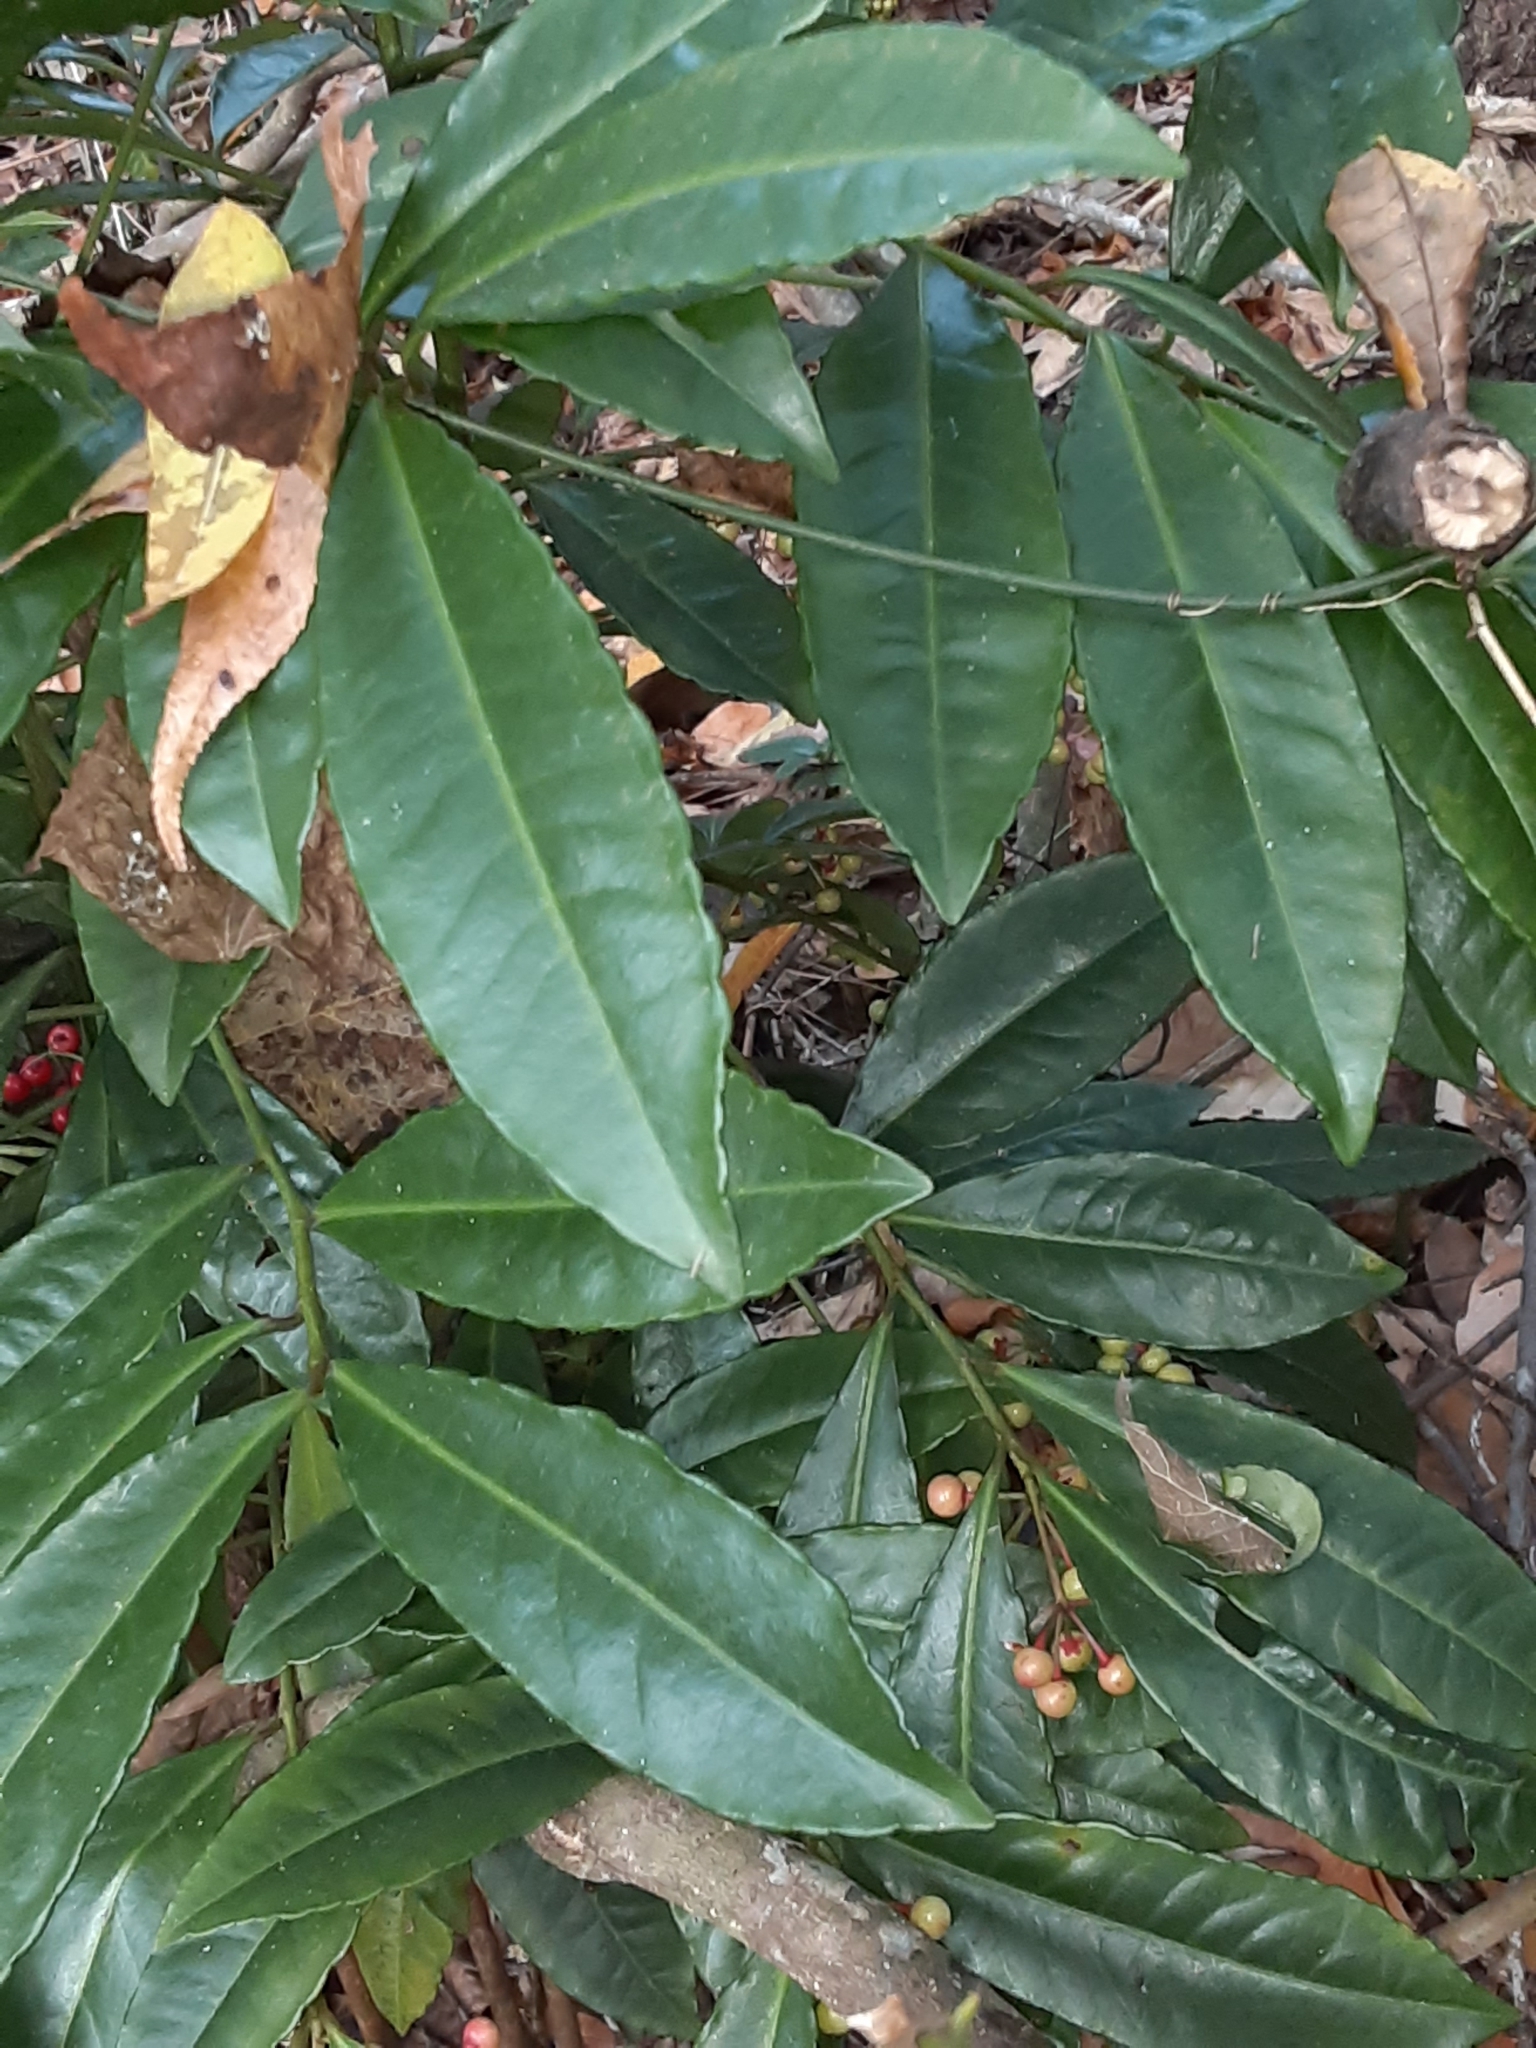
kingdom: Plantae
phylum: Tracheophyta
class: Magnoliopsida
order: Ericales
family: Primulaceae
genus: Ardisia
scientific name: Ardisia crenata
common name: Hen's eyes
